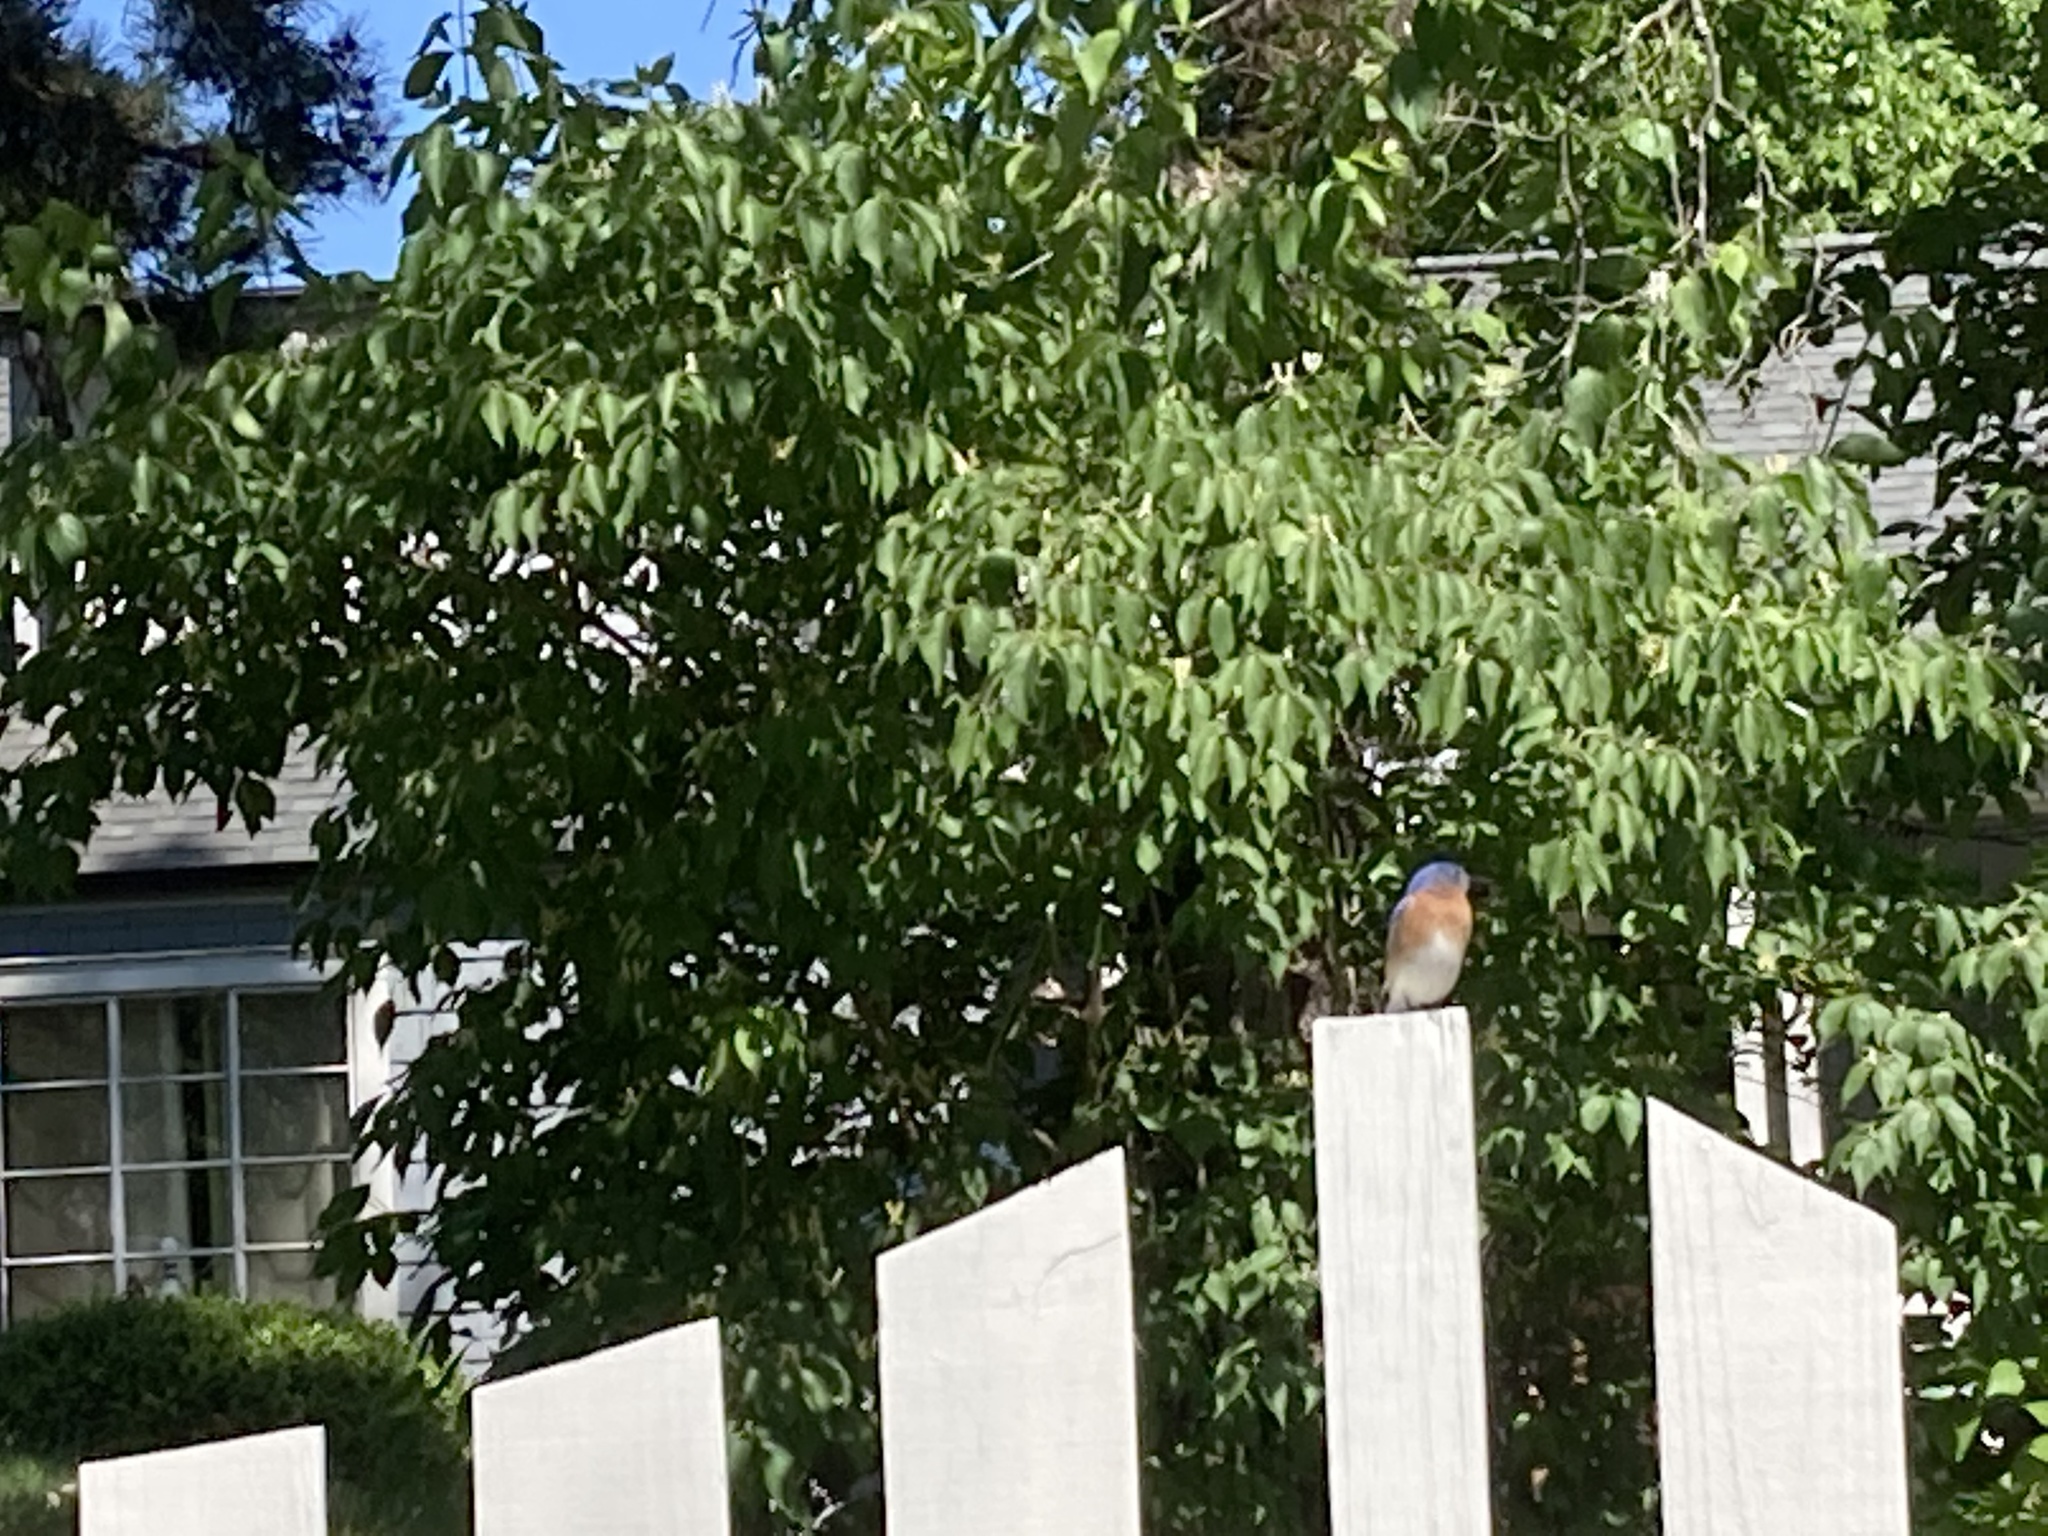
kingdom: Animalia
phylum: Chordata
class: Aves
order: Passeriformes
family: Turdidae
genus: Sialia
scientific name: Sialia sialis
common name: Eastern bluebird
